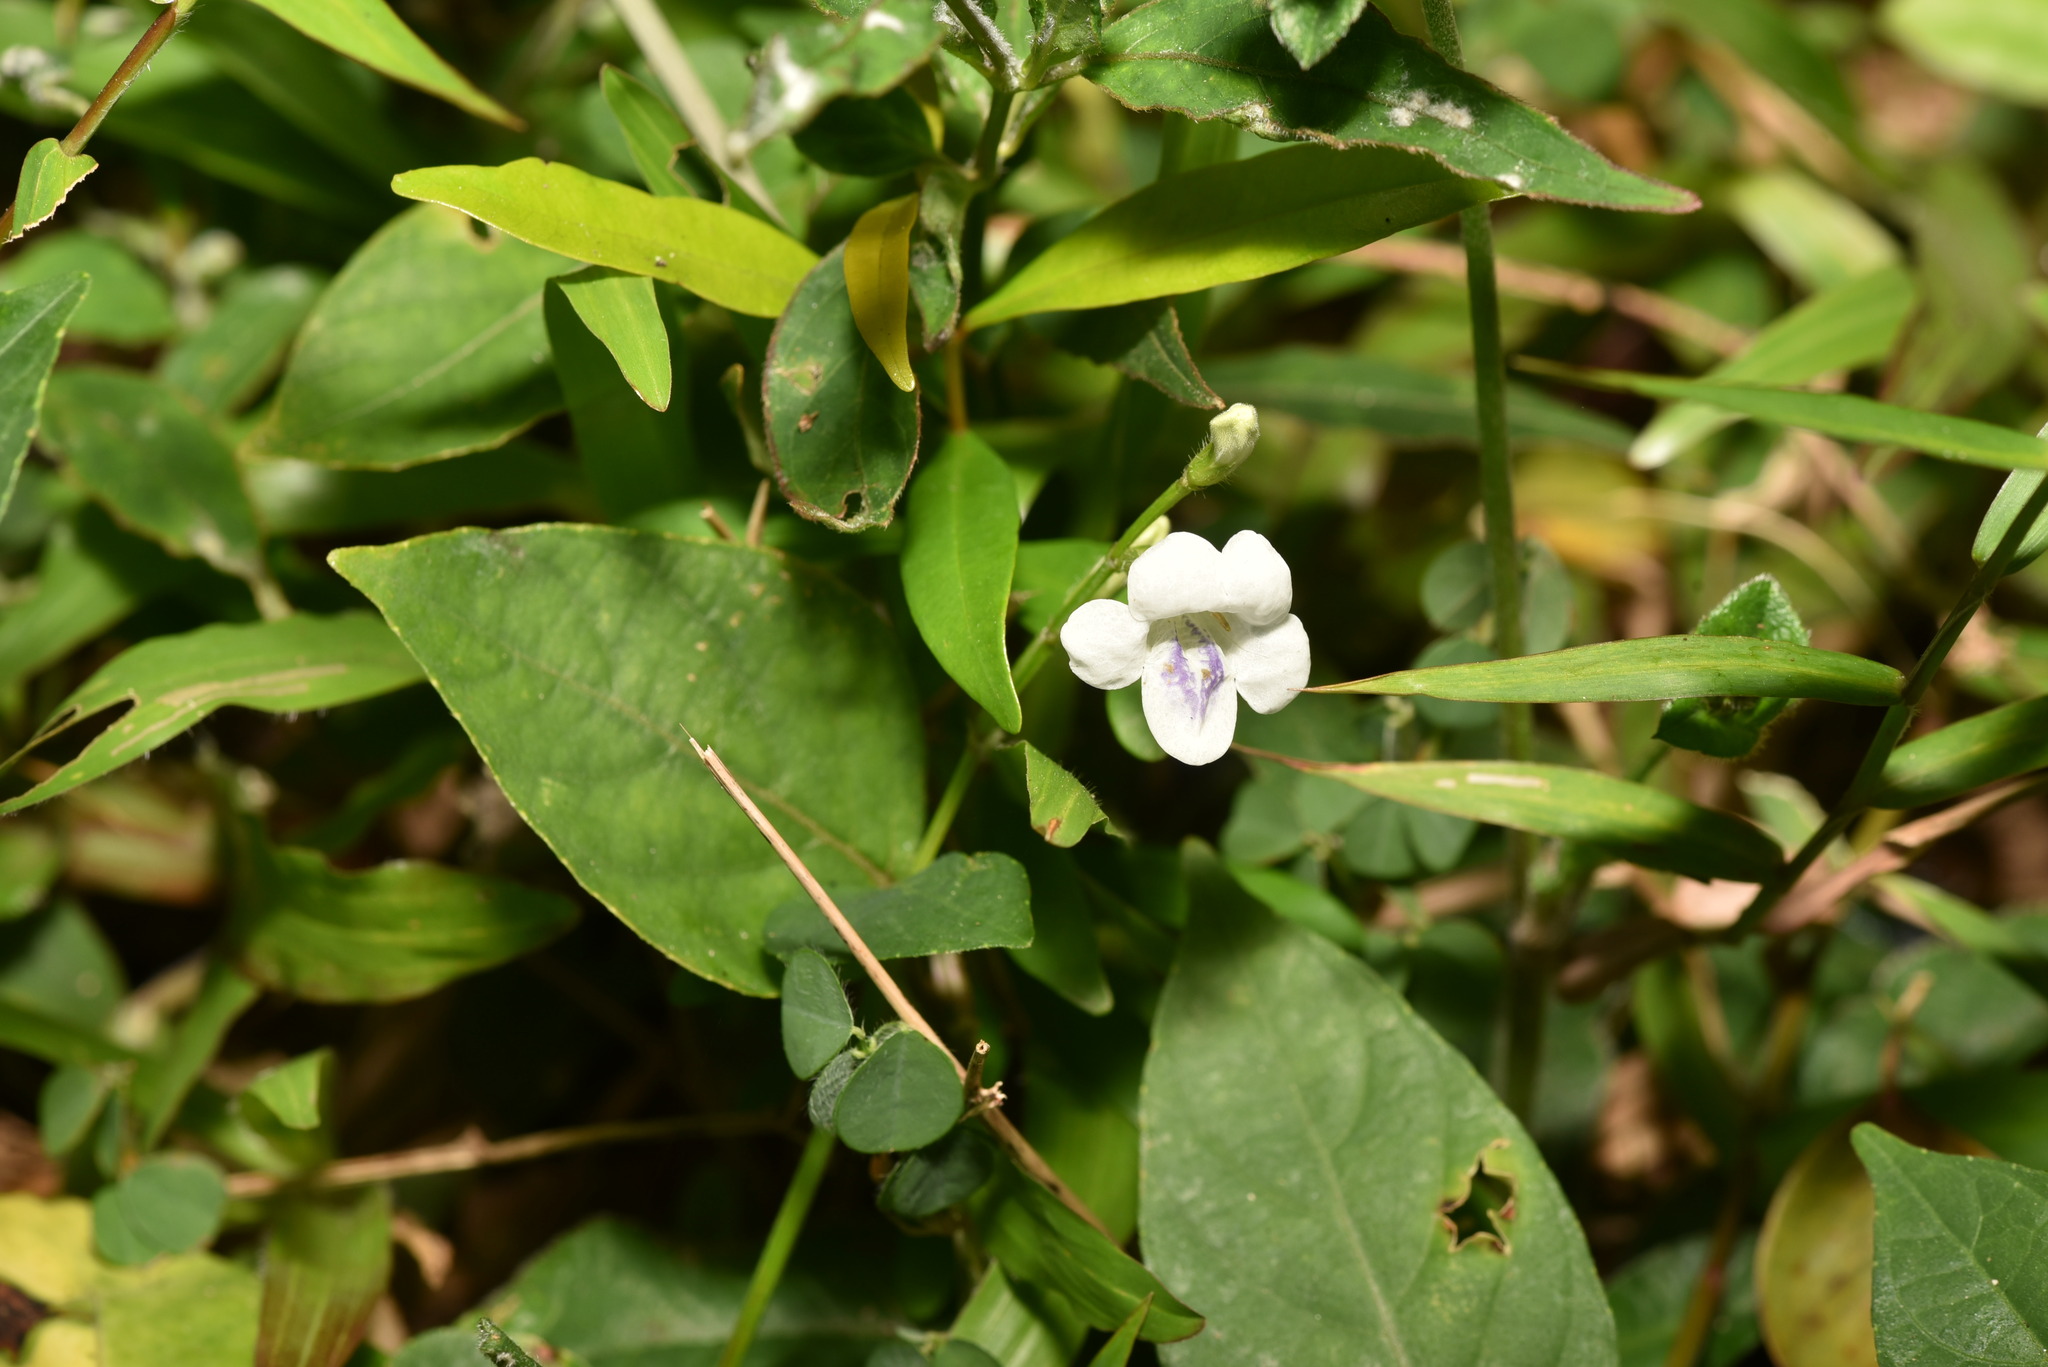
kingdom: Plantae
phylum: Tracheophyta
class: Magnoliopsida
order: Lamiales
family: Acanthaceae
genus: Asystasia
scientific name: Asystasia intrusa
